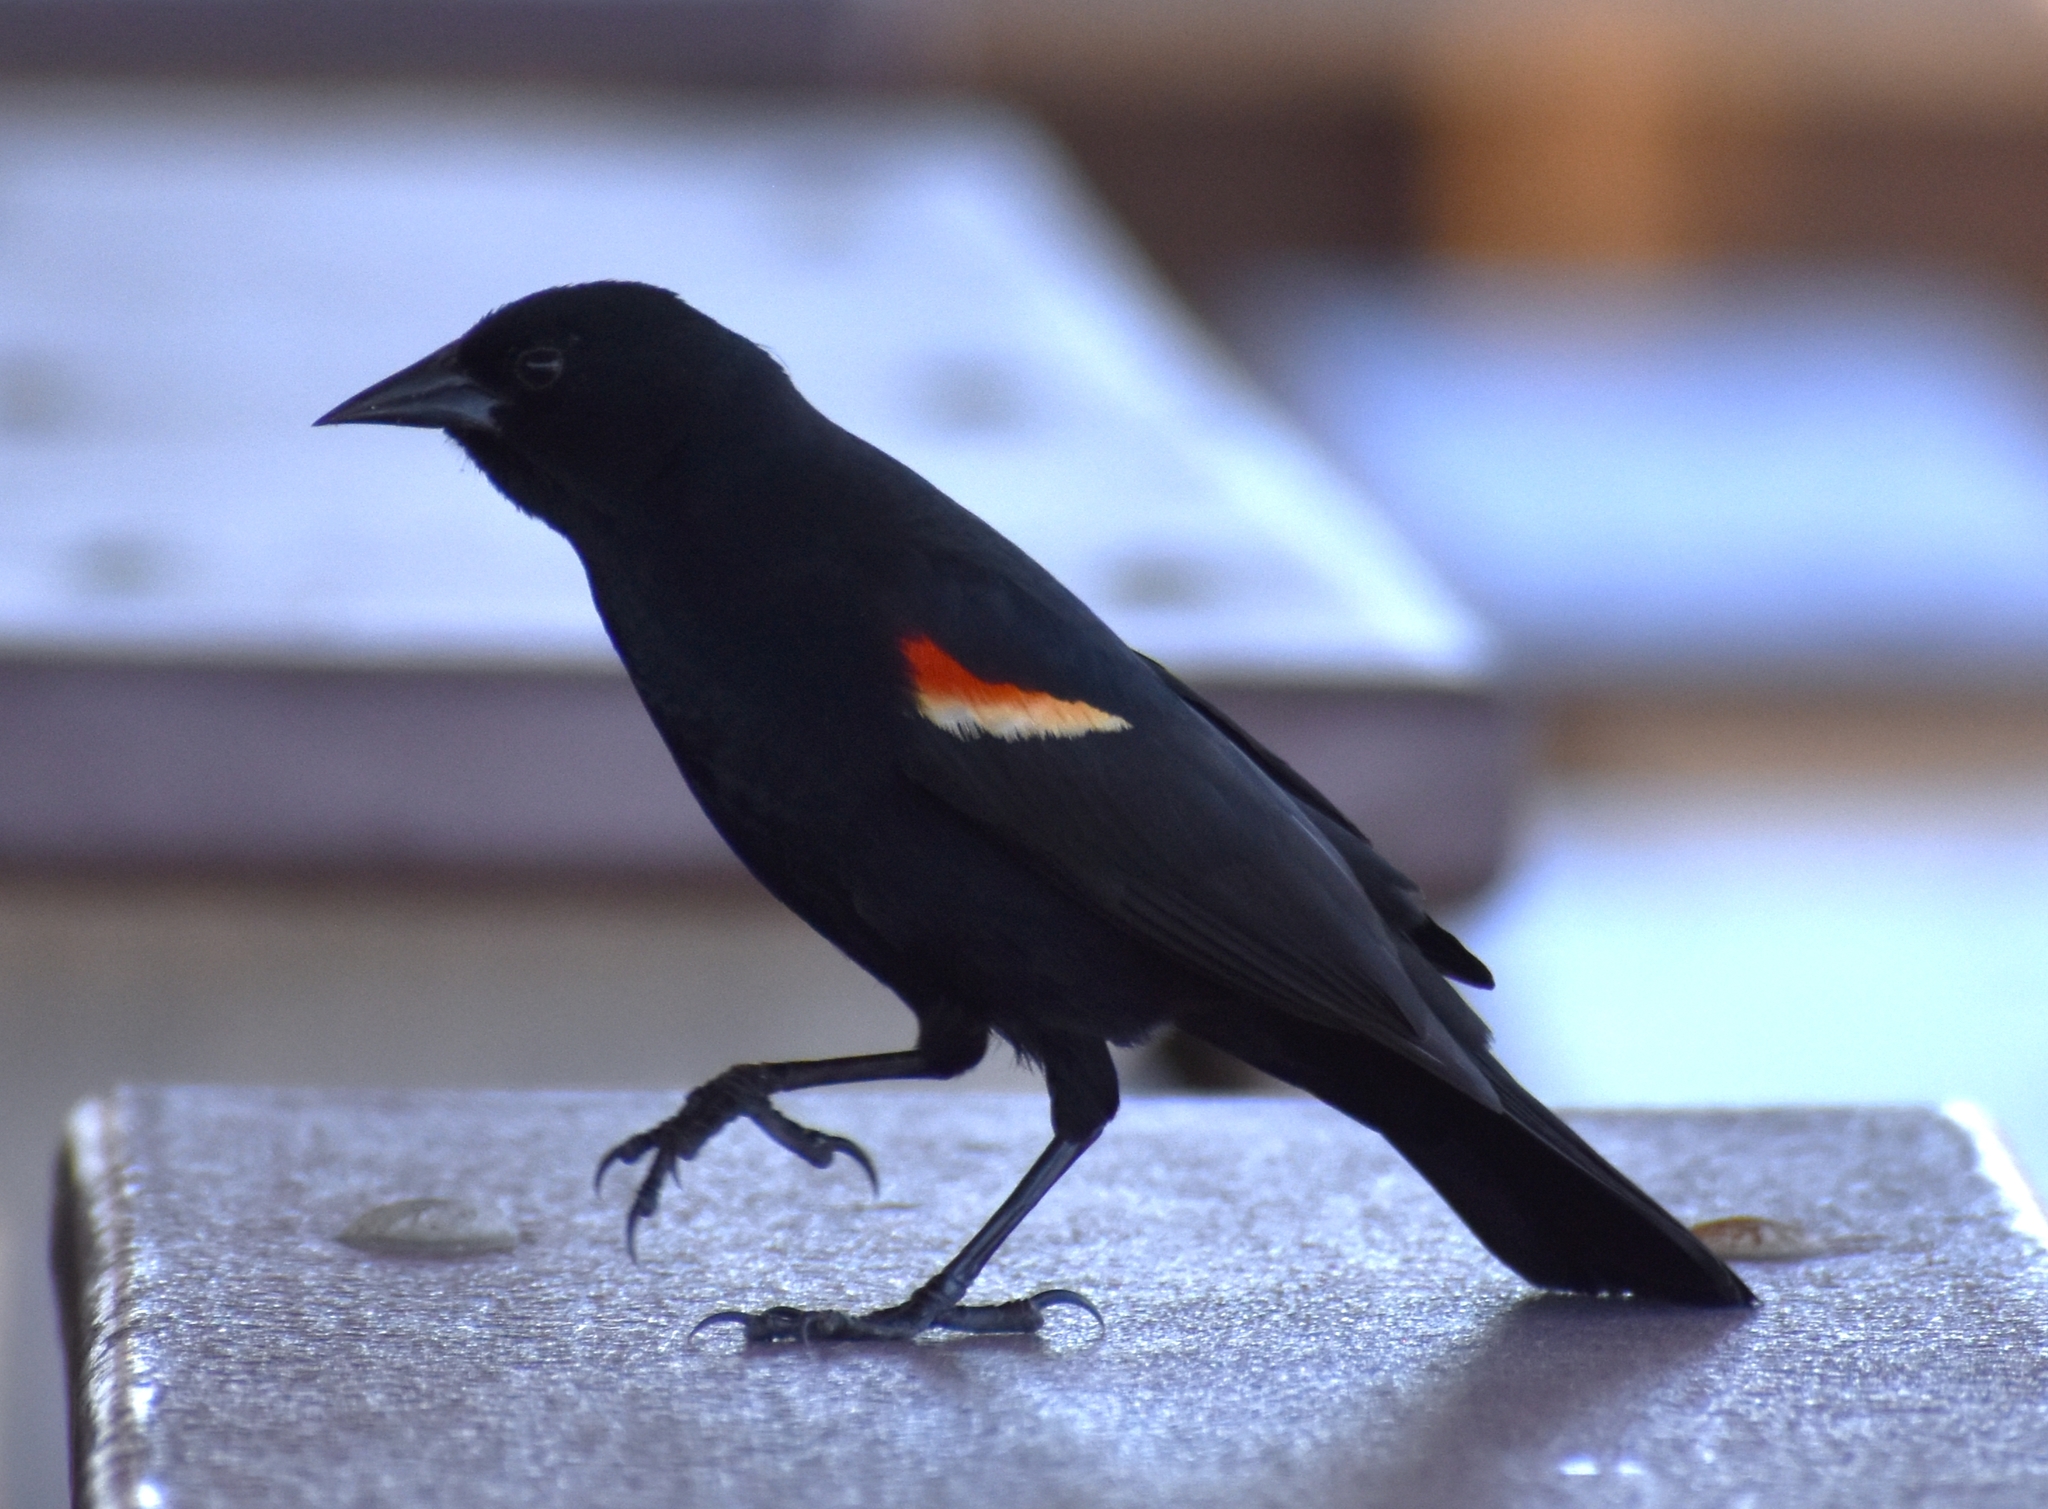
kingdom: Animalia
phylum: Chordata
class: Aves
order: Passeriformes
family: Icteridae
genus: Agelaius
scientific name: Agelaius phoeniceus
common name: Red-winged blackbird
